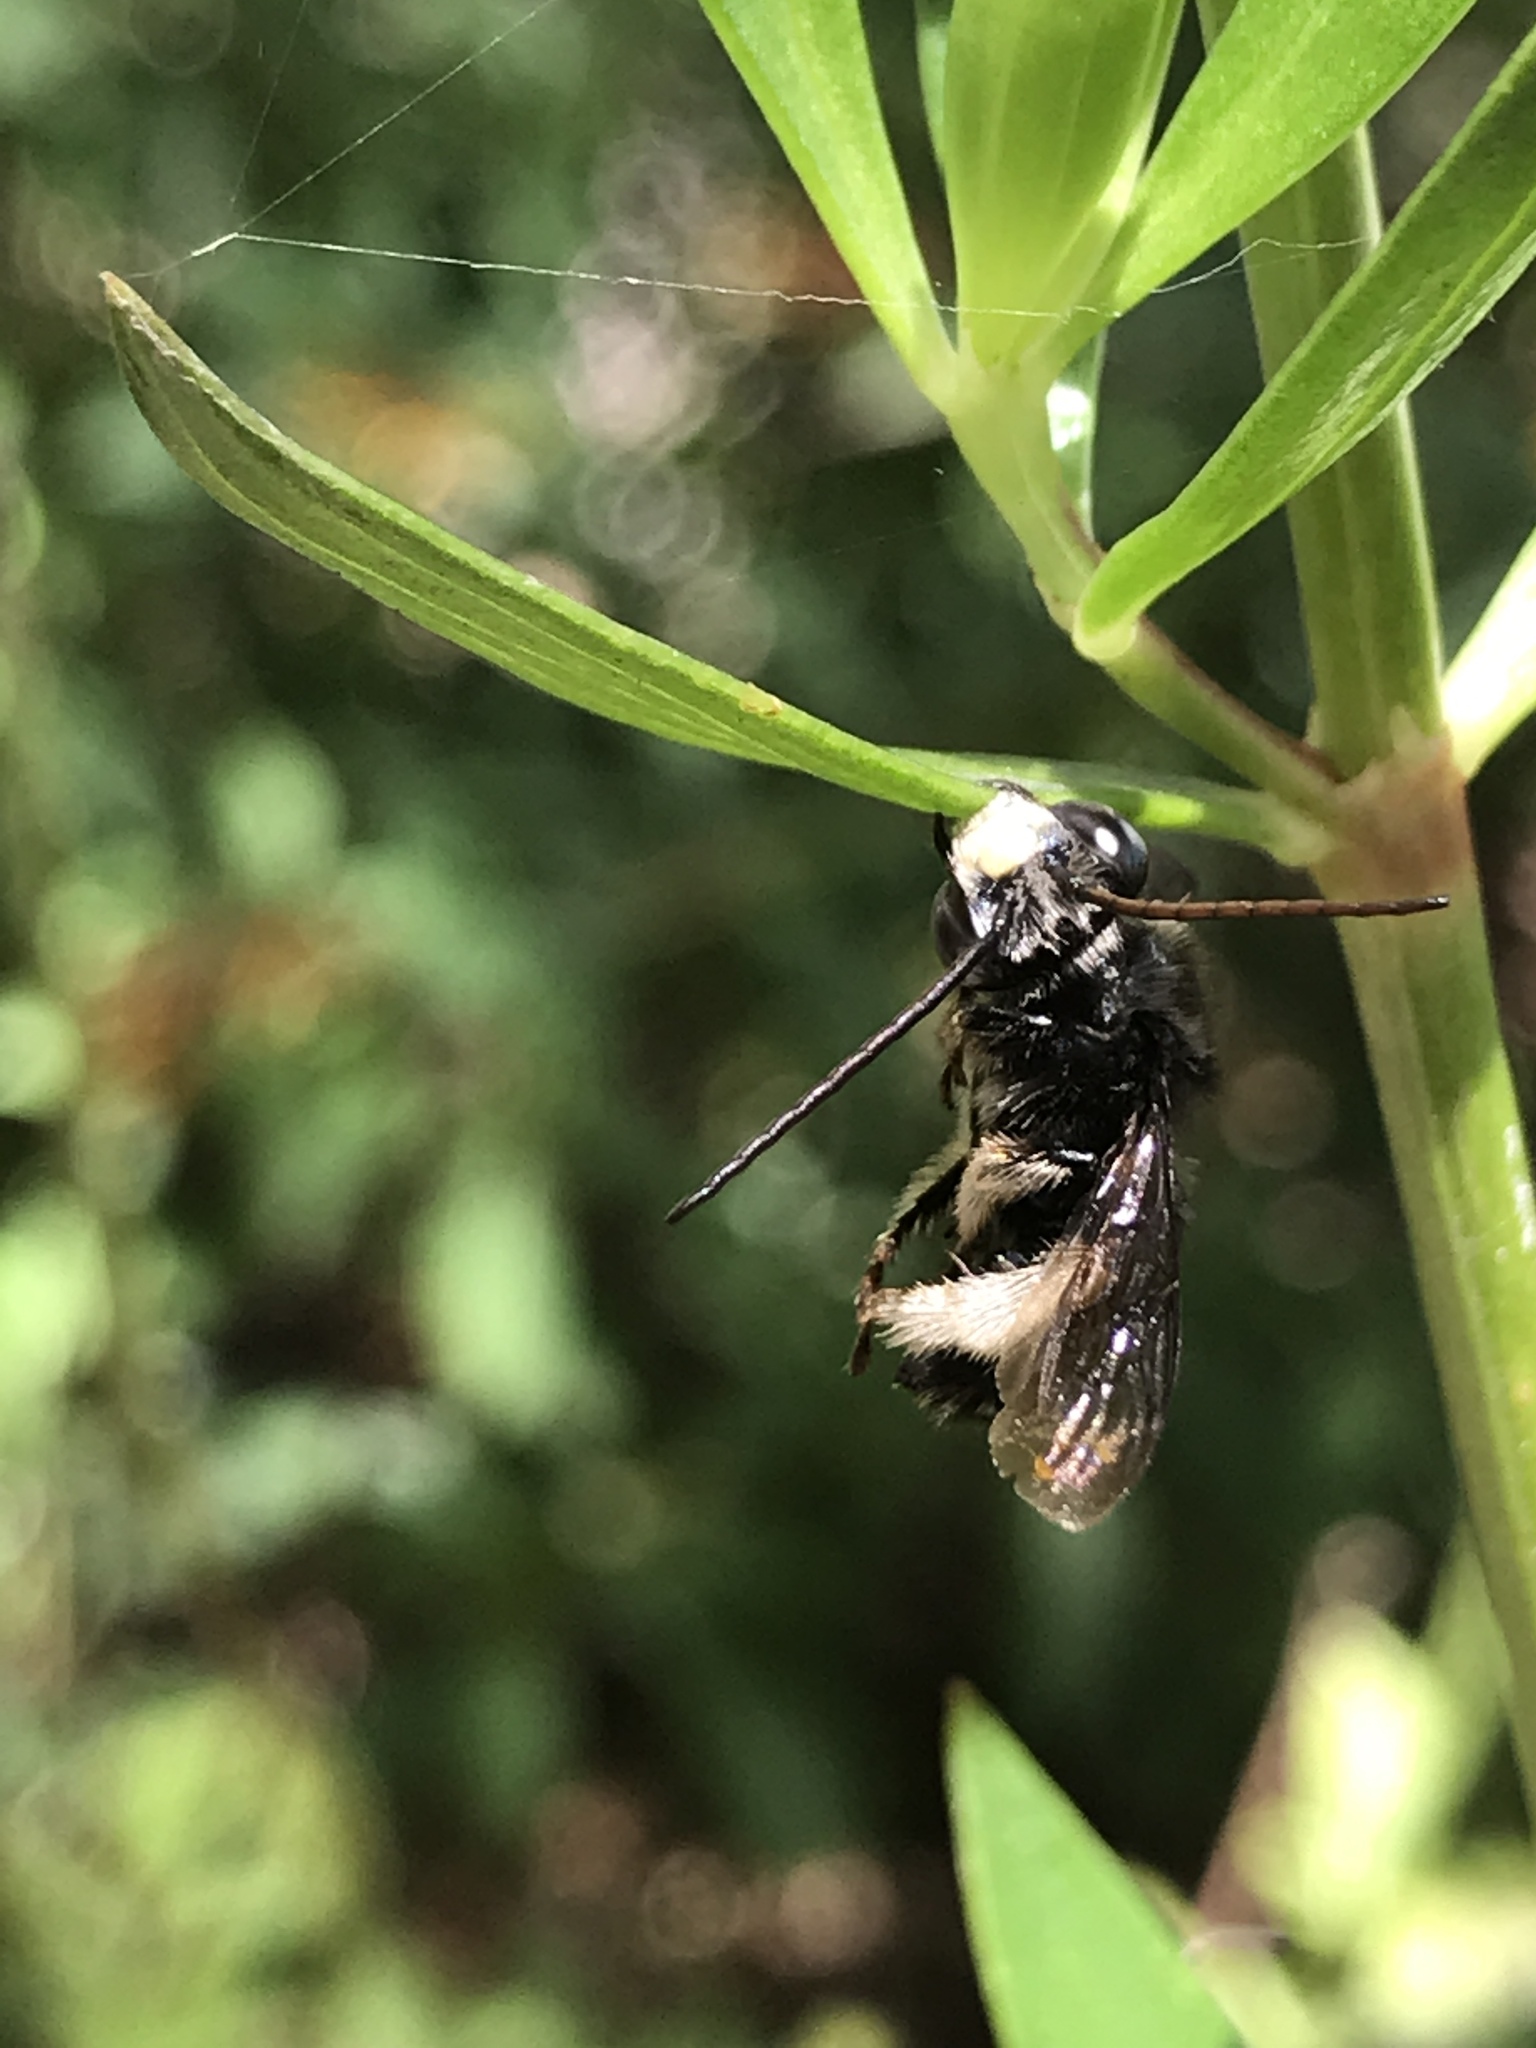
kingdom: Animalia
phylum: Arthropoda
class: Insecta
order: Hymenoptera
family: Apidae
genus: Melissodes
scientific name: Melissodes bimaculatus
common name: Two-spotted long-horned bee
